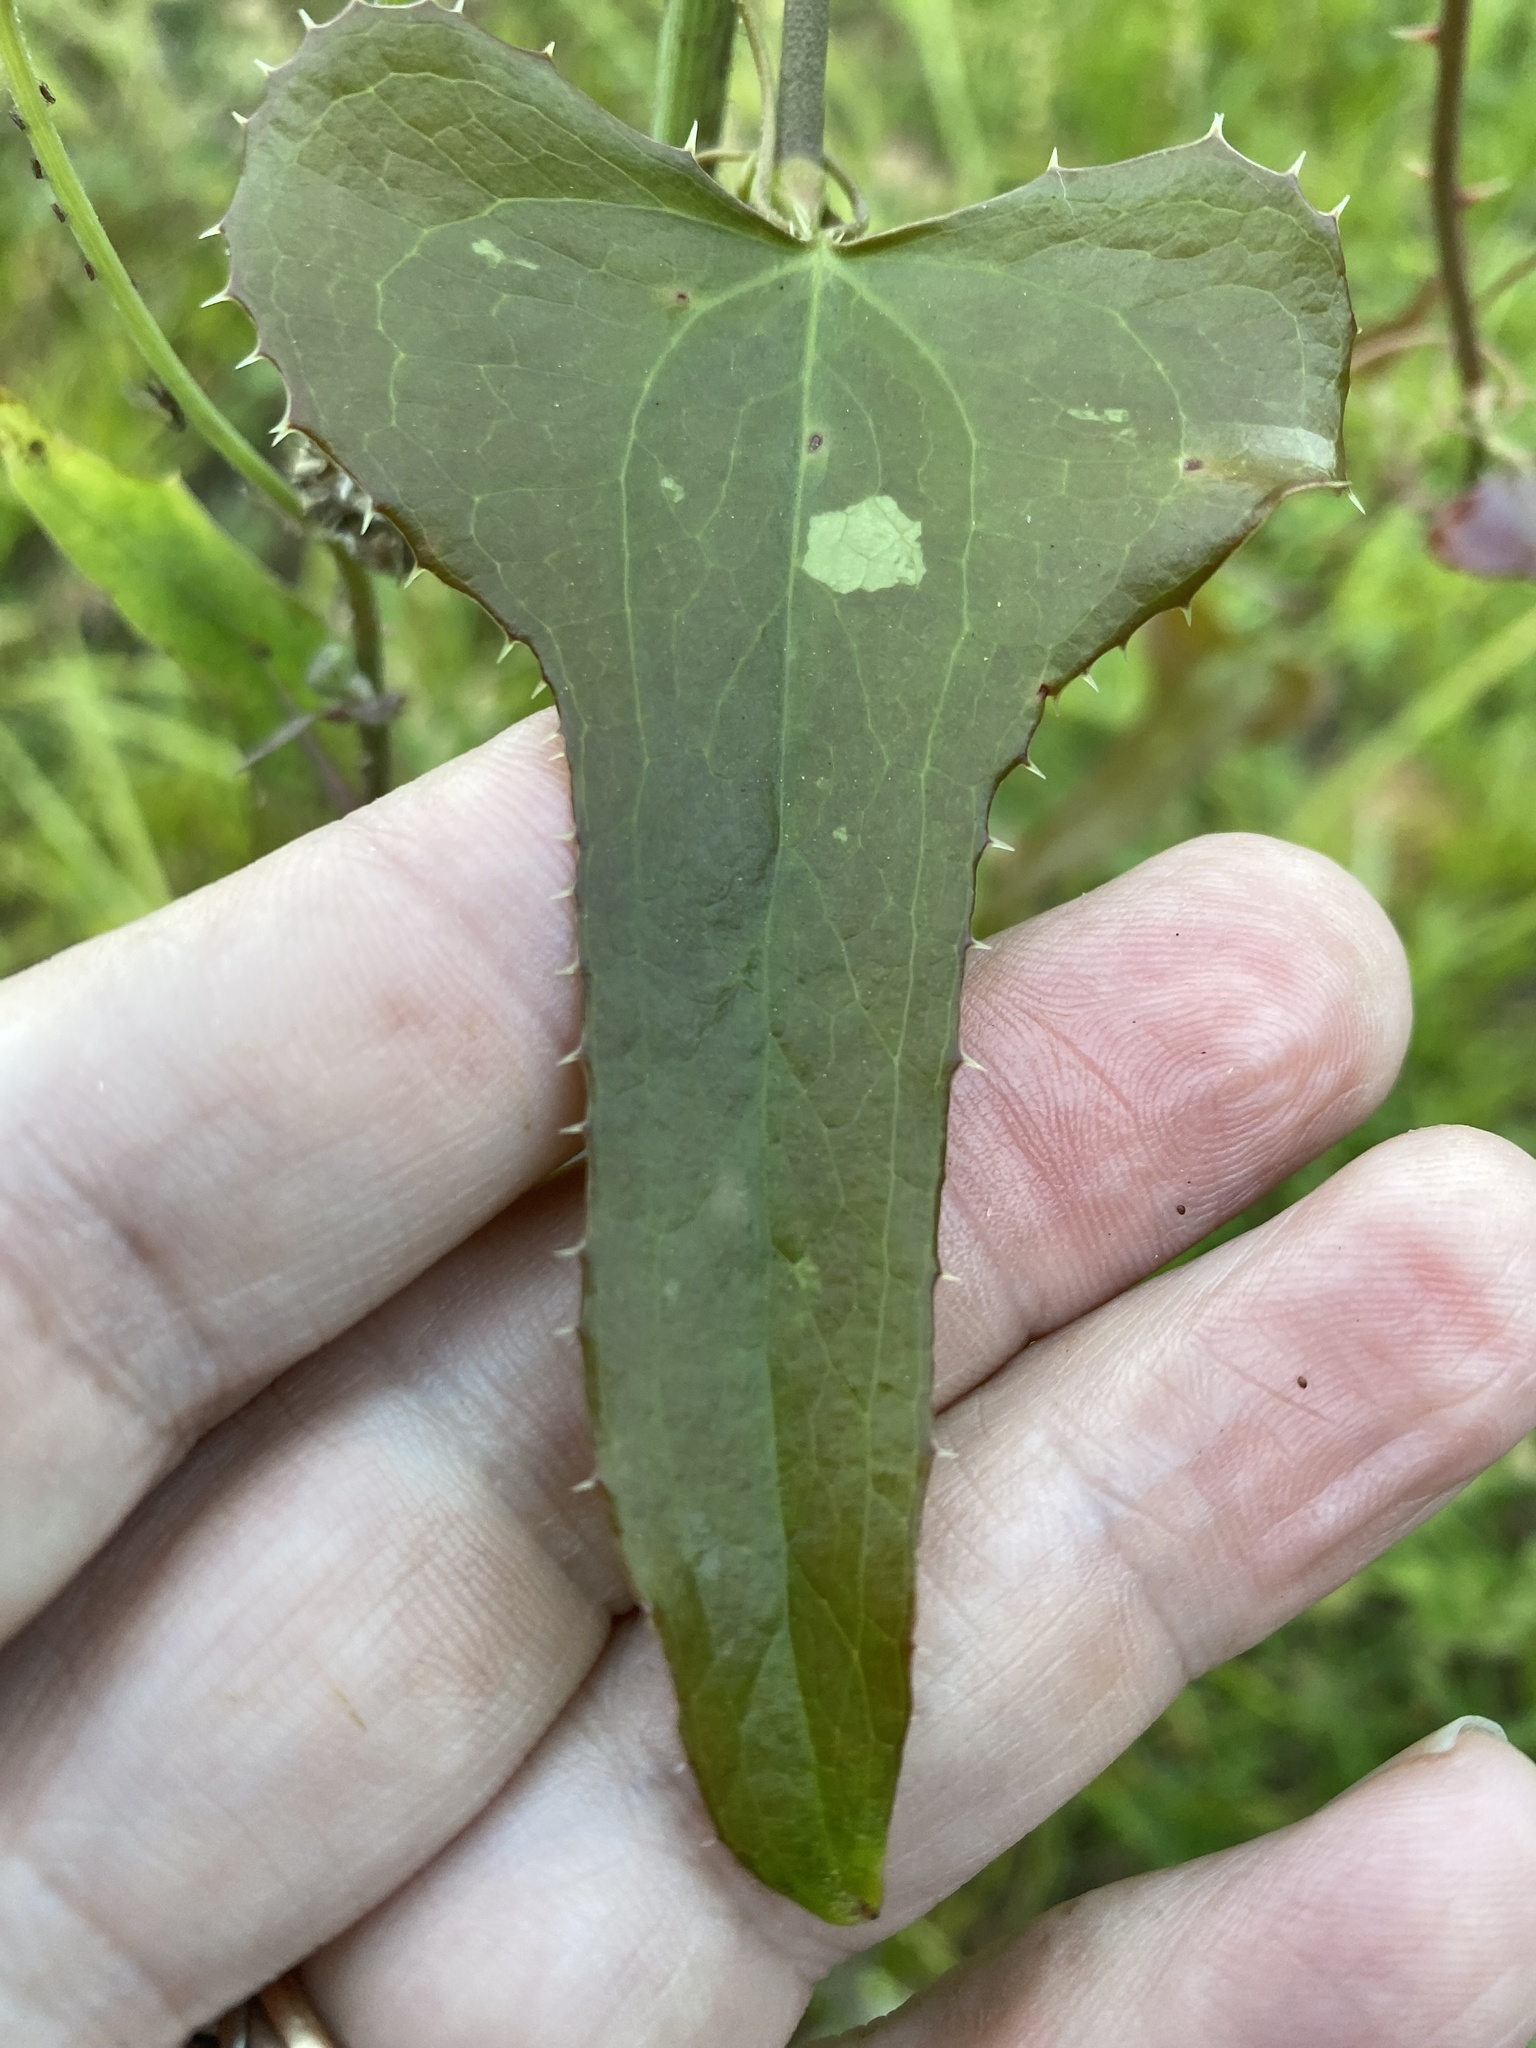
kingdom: Plantae
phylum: Tracheophyta
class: Liliopsida
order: Liliales
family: Smilacaceae
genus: Smilax
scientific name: Smilax bona-nox
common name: Catbrier
